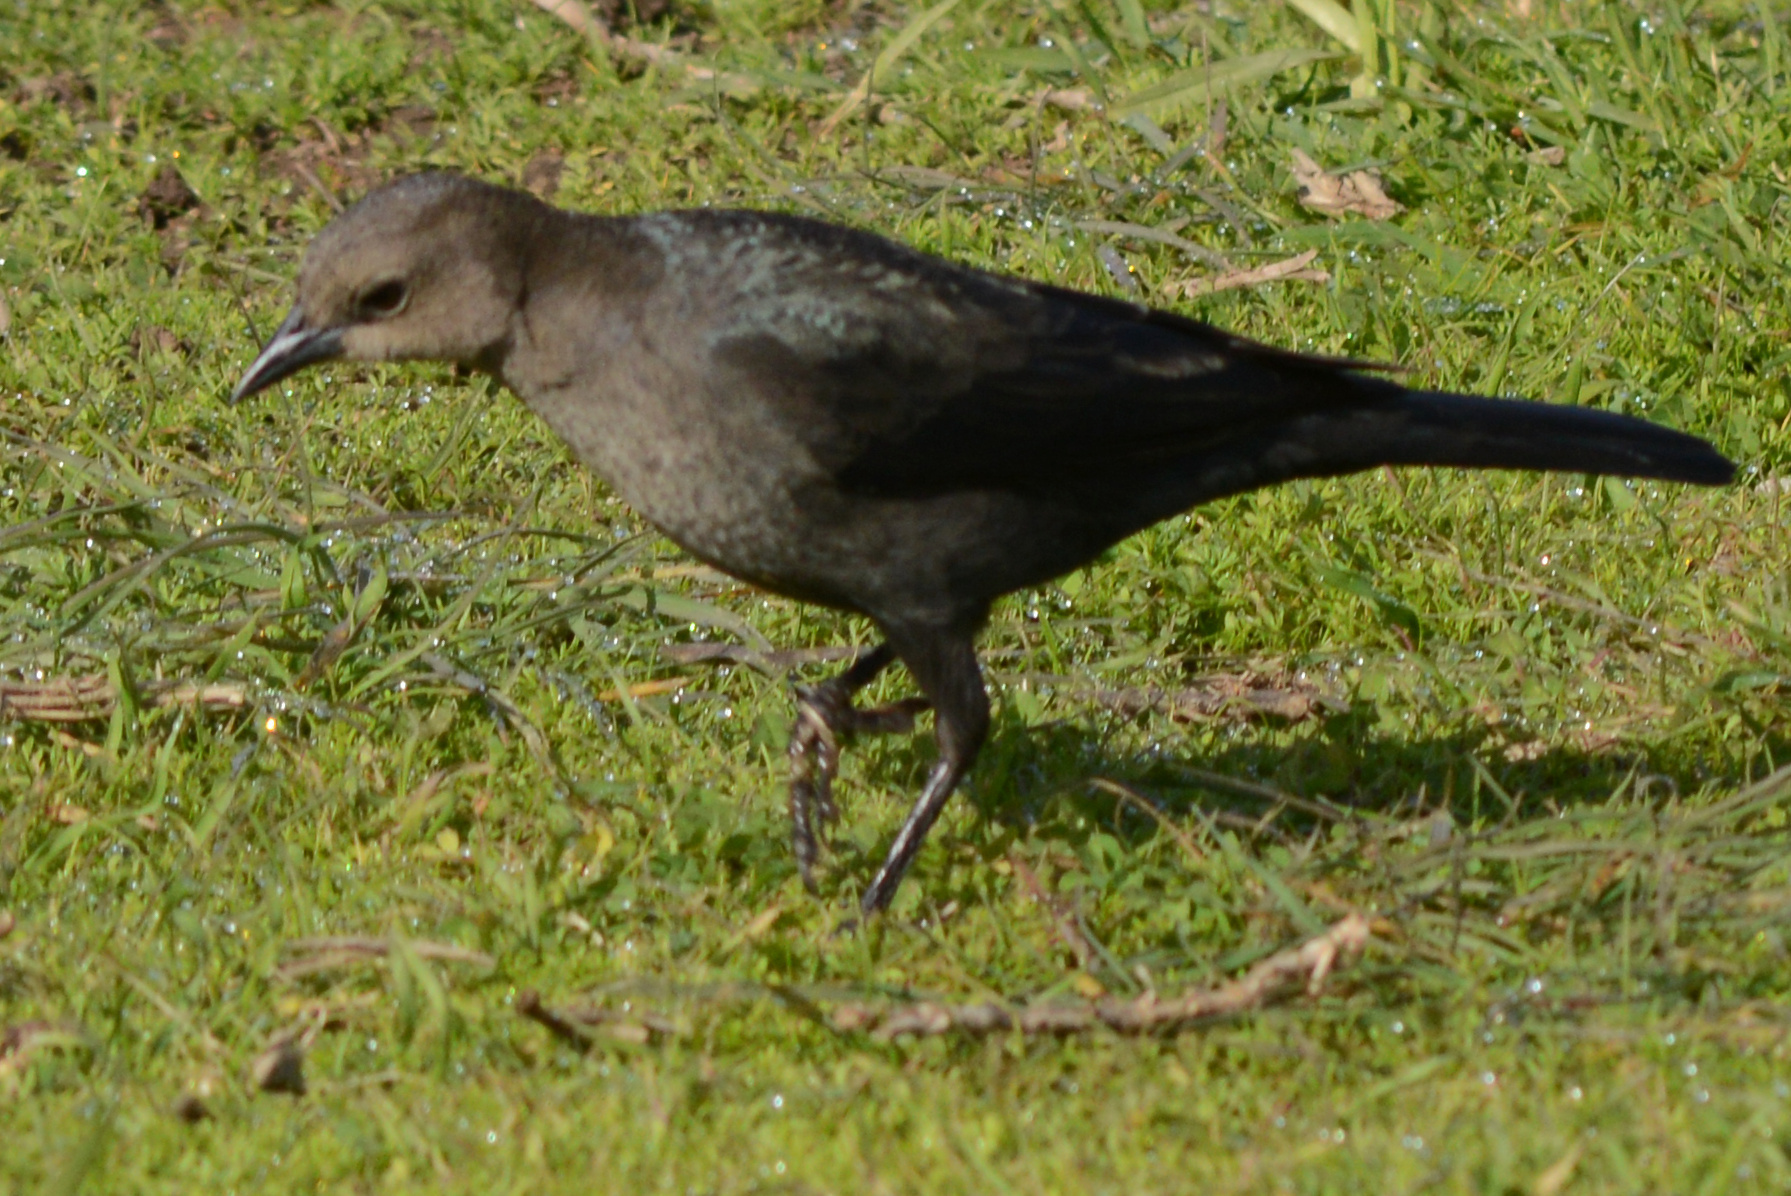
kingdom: Animalia
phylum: Chordata
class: Aves
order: Passeriformes
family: Icteridae
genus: Euphagus
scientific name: Euphagus cyanocephalus
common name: Brewer's blackbird
